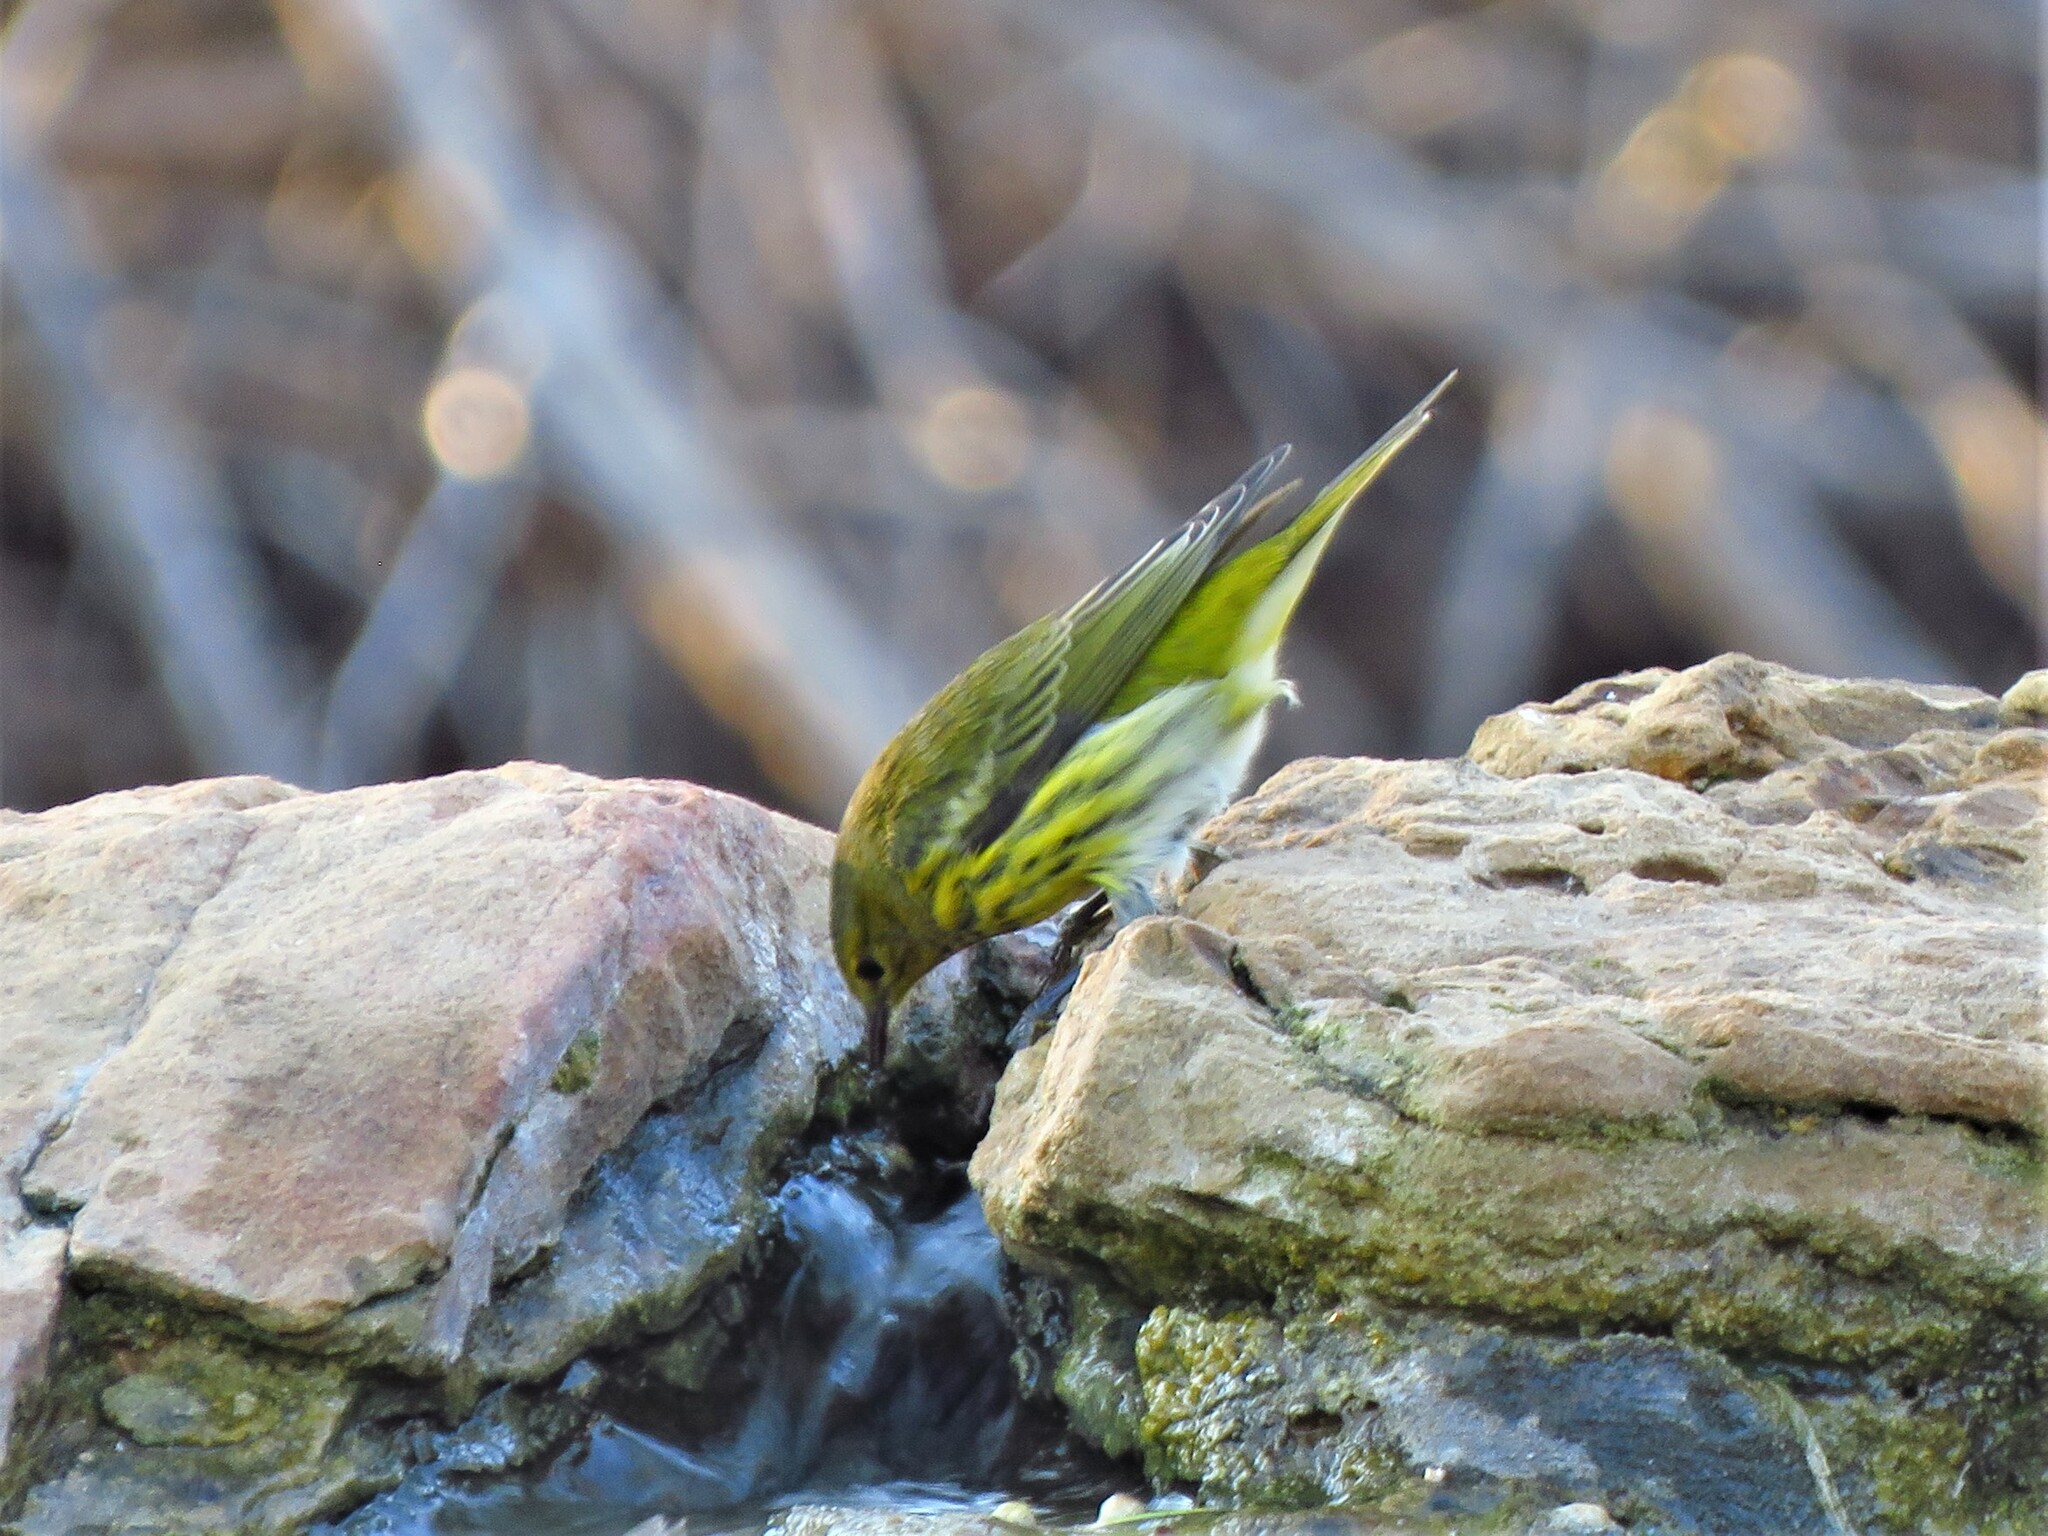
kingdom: Animalia
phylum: Chordata
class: Aves
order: Passeriformes
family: Parulidae
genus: Setophaga
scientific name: Setophaga tigrina
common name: Cape may warbler
